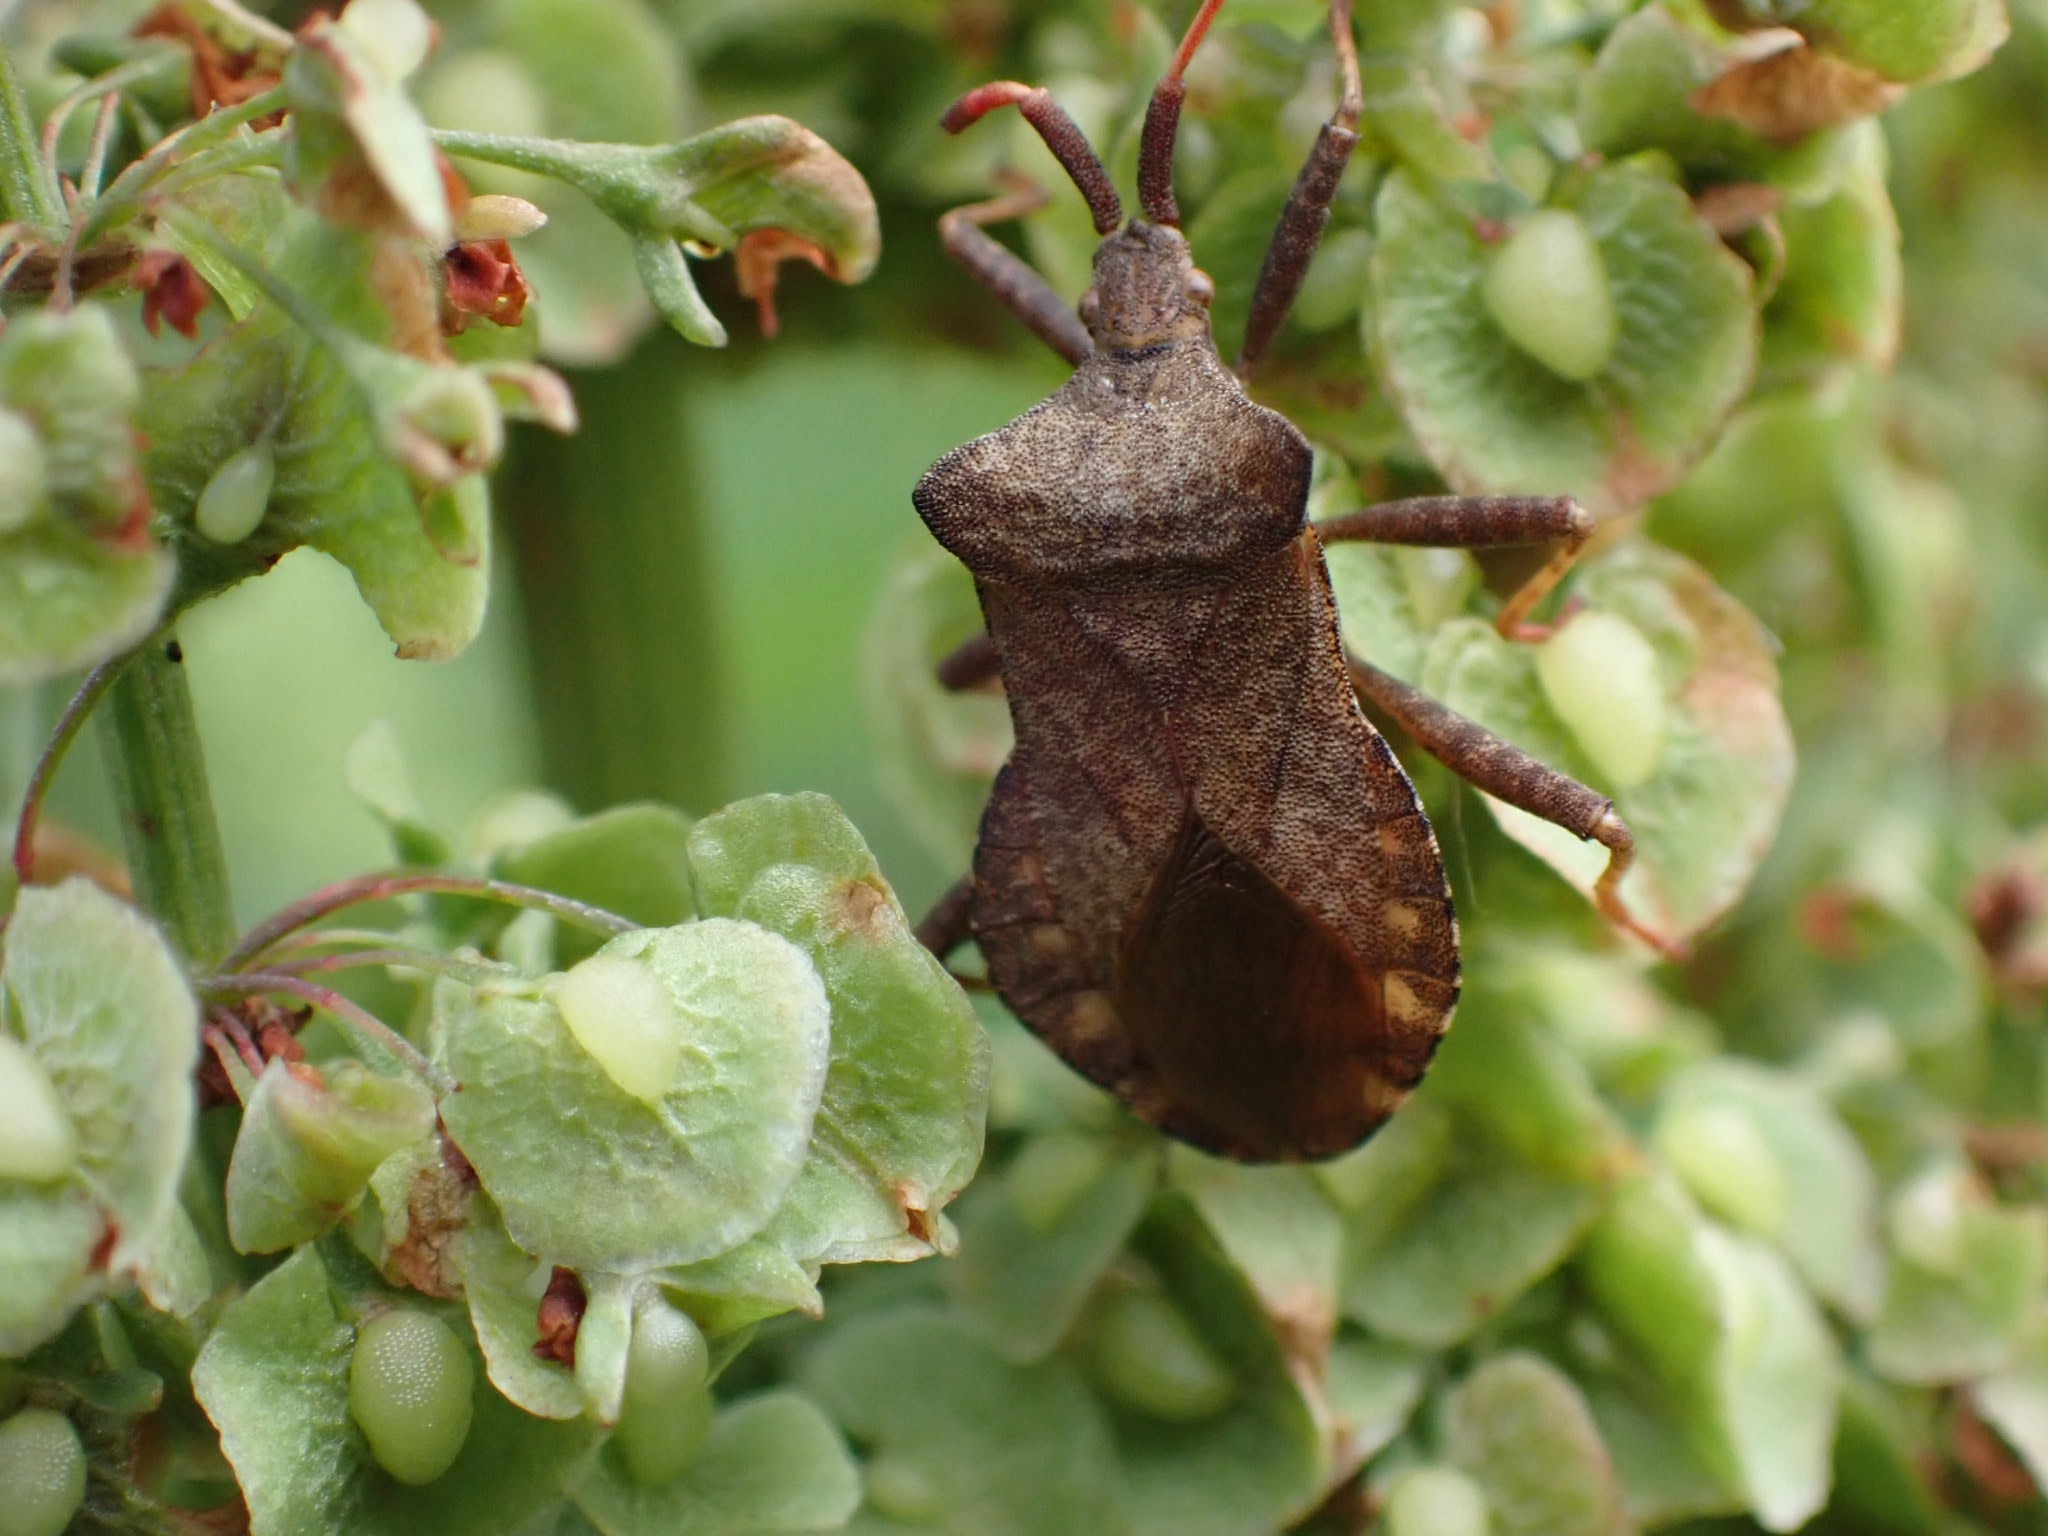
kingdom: Animalia
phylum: Arthropoda
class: Insecta
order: Hemiptera
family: Coreidae
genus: Coreus
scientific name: Coreus marginatus
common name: Dock bug
